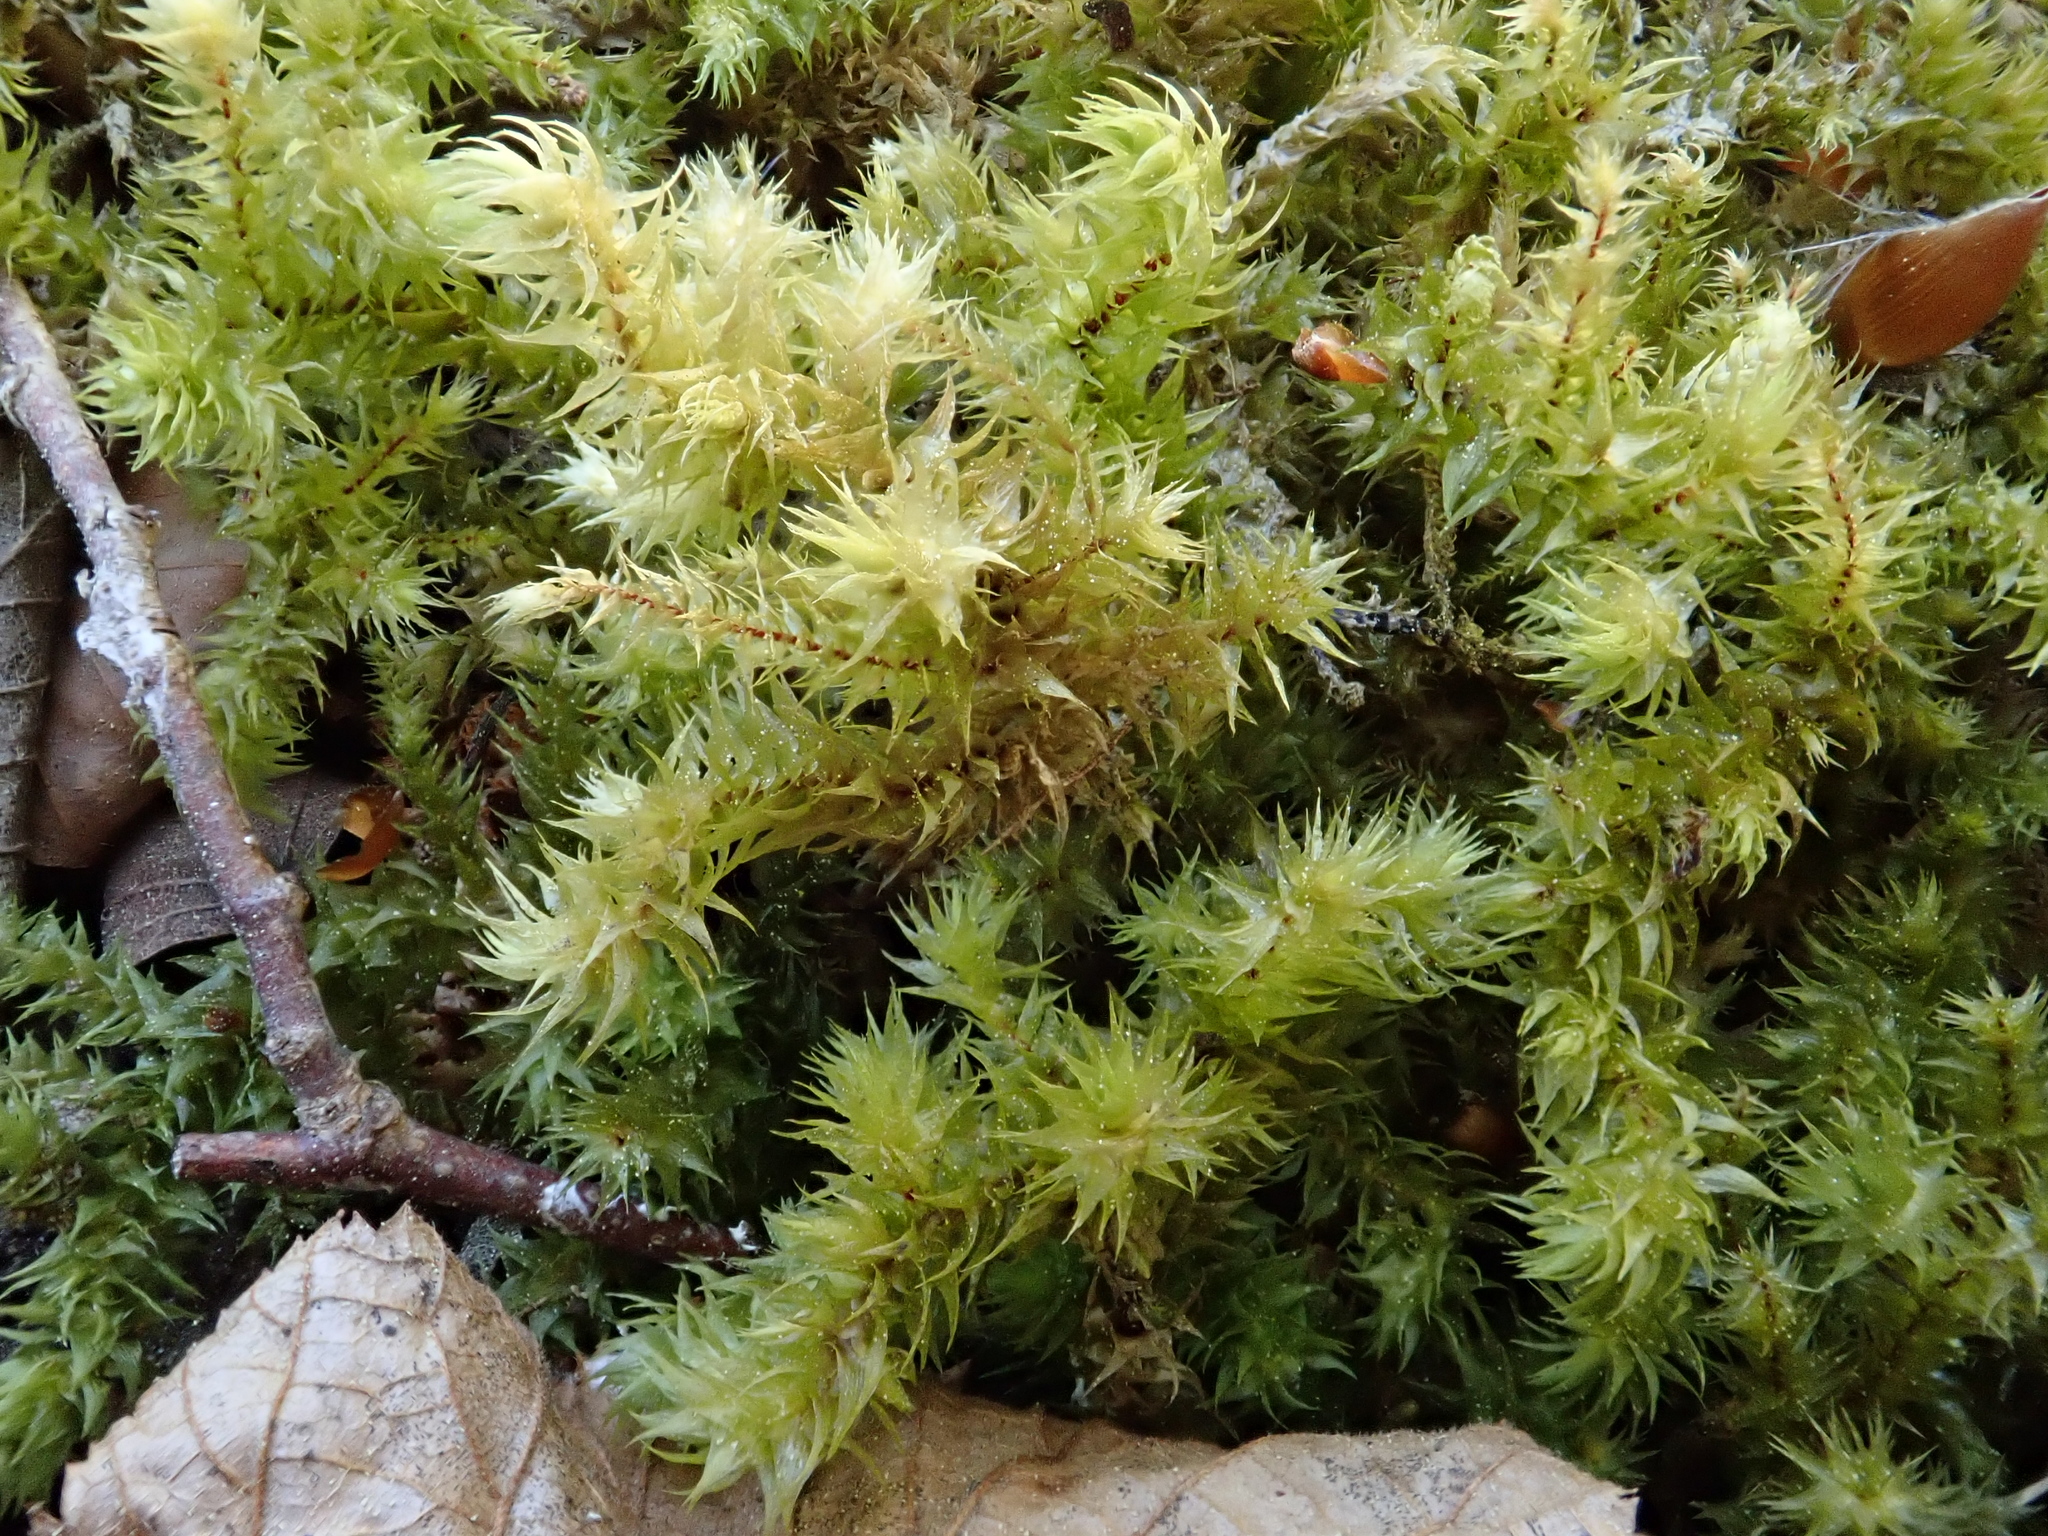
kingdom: Plantae
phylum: Bryophyta
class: Bryopsida
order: Hypnales
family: Hylocomiaceae
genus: Hylocomiadelphus
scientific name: Hylocomiadelphus triquetrus
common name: Rough goose neck moss
